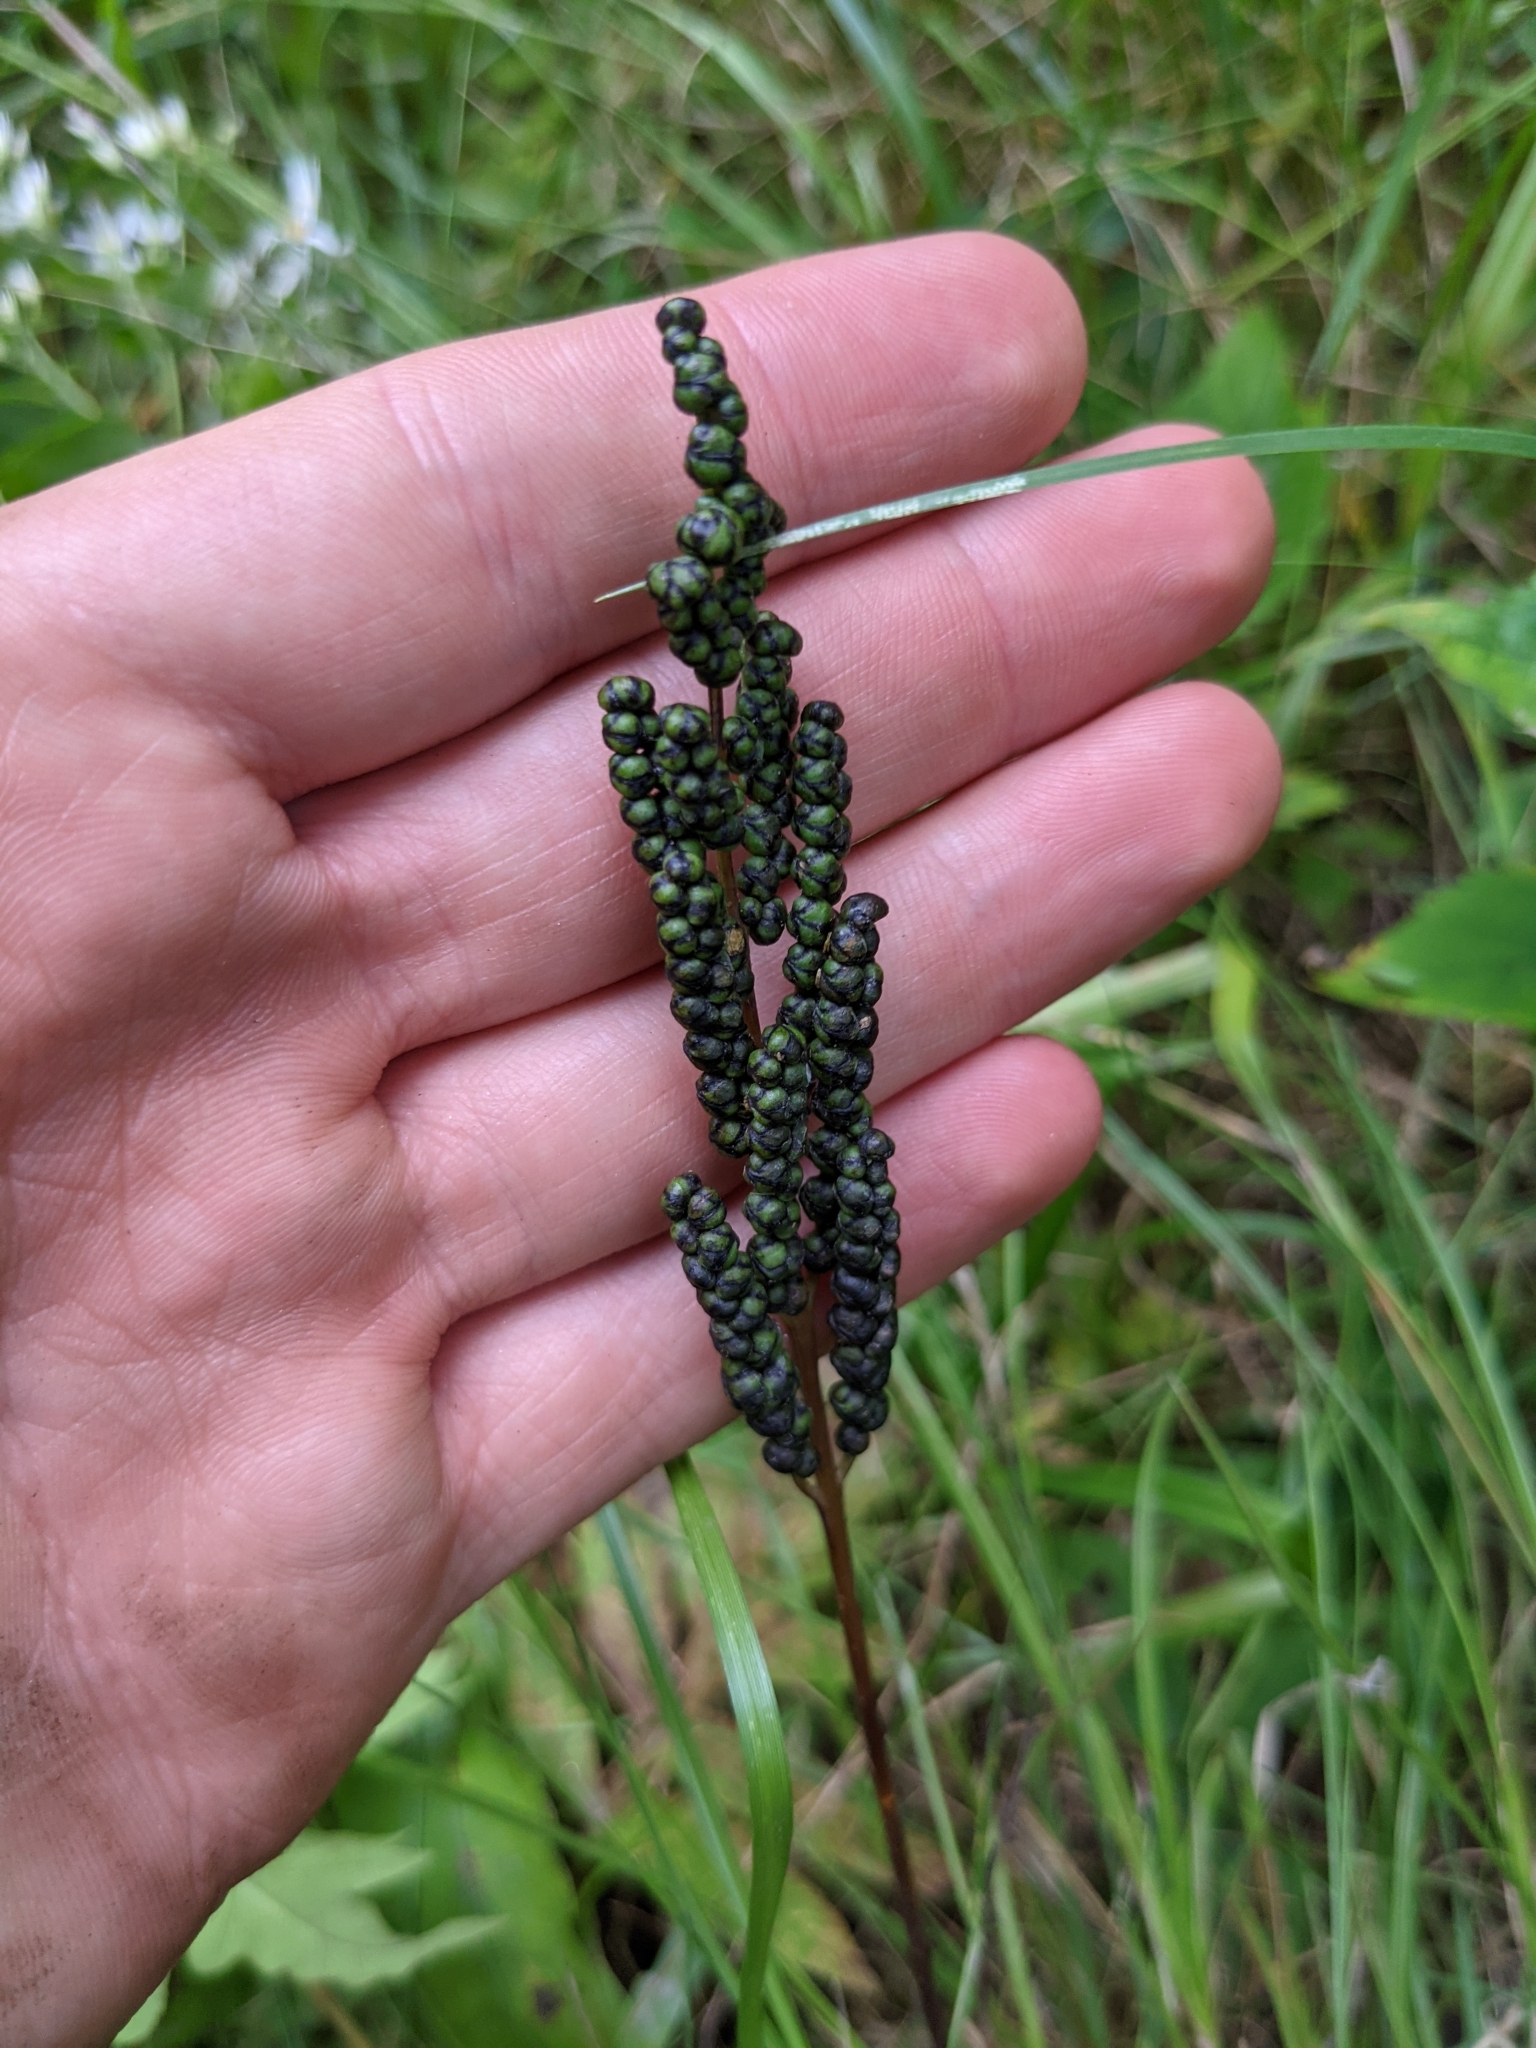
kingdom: Plantae
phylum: Tracheophyta
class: Polypodiopsida
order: Polypodiales
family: Onocleaceae
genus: Onoclea
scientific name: Onoclea sensibilis
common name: Sensitive fern
